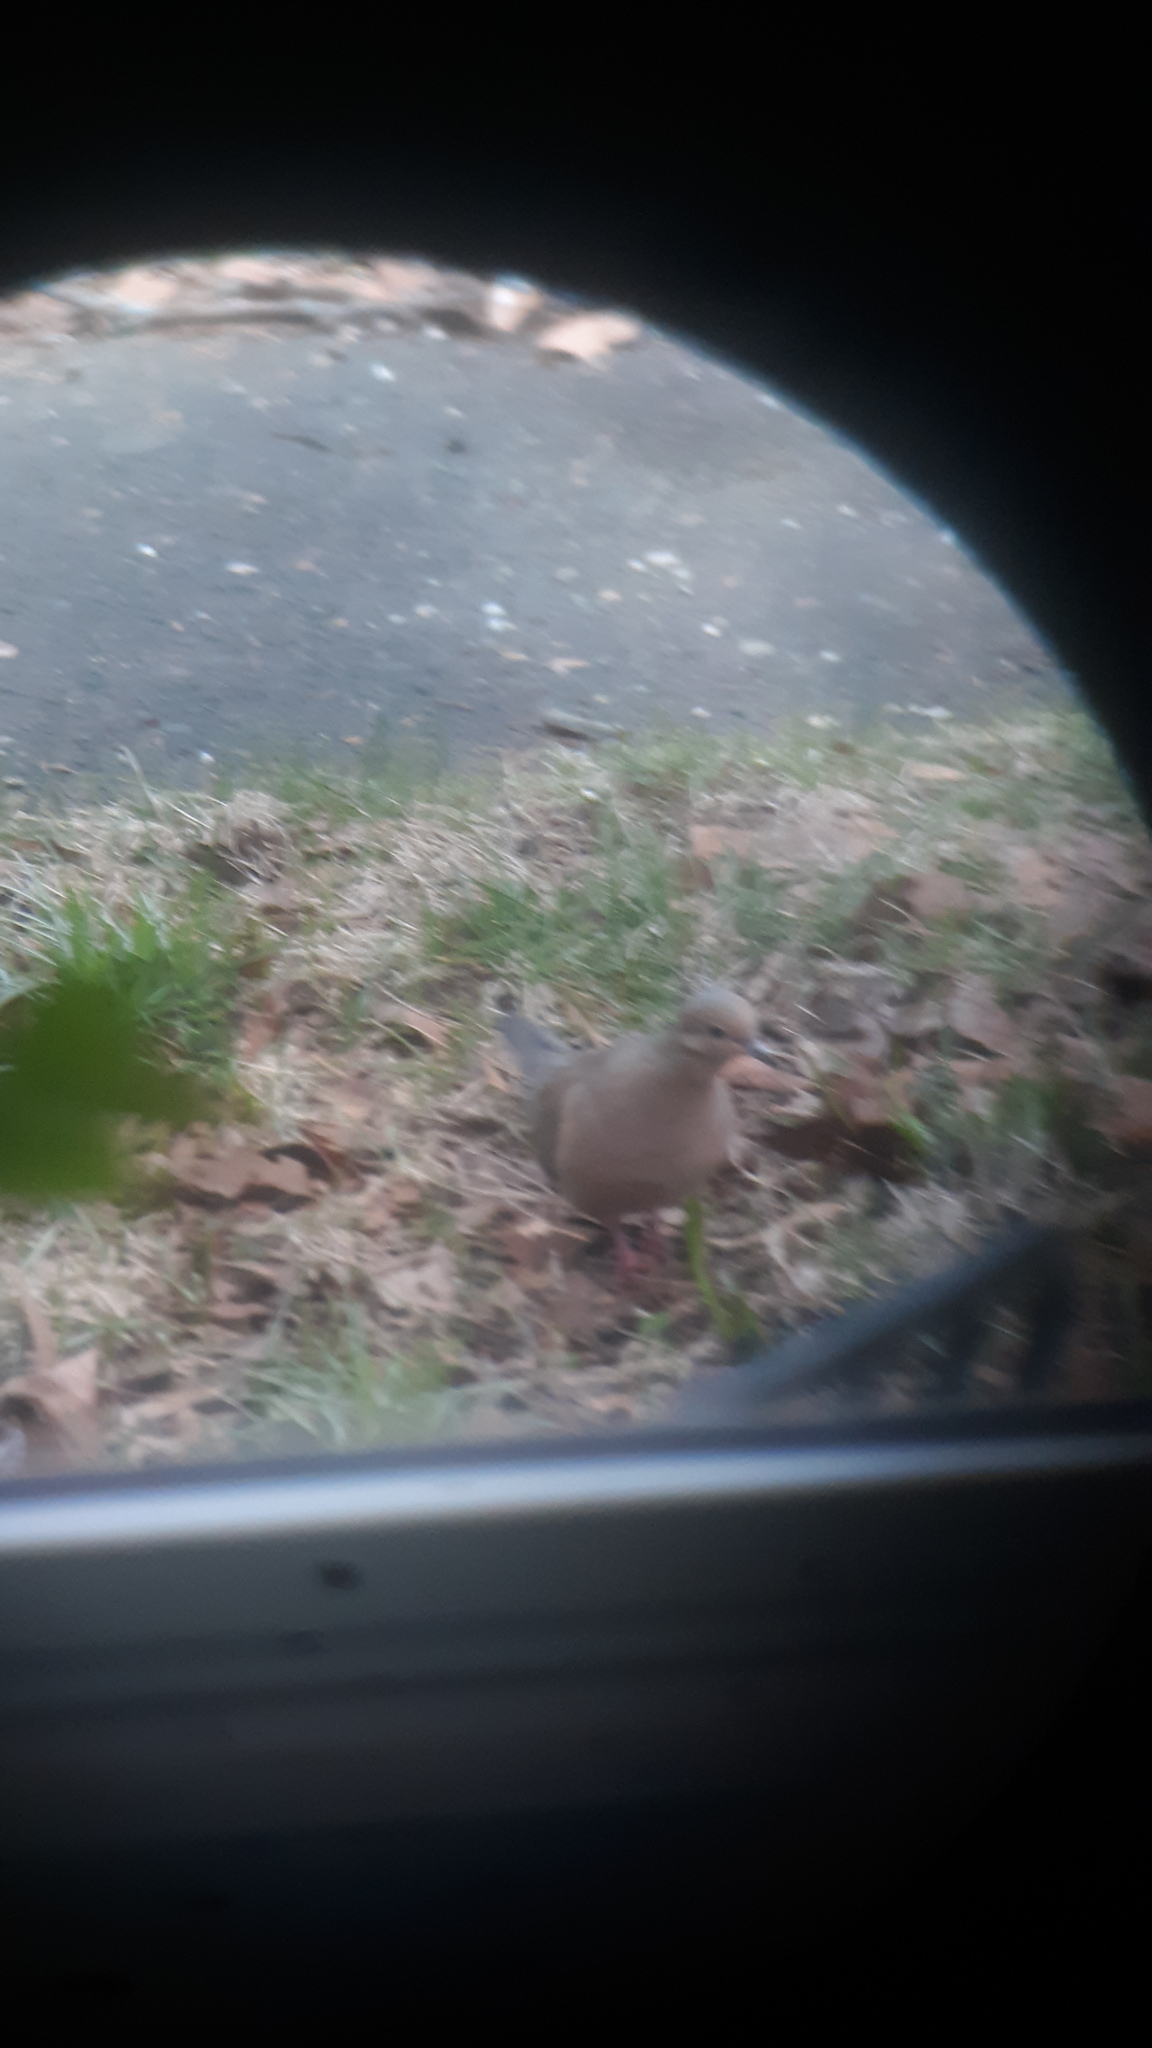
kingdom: Animalia
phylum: Chordata
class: Aves
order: Columbiformes
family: Columbidae
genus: Zenaida
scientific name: Zenaida macroura
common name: Mourning dove
